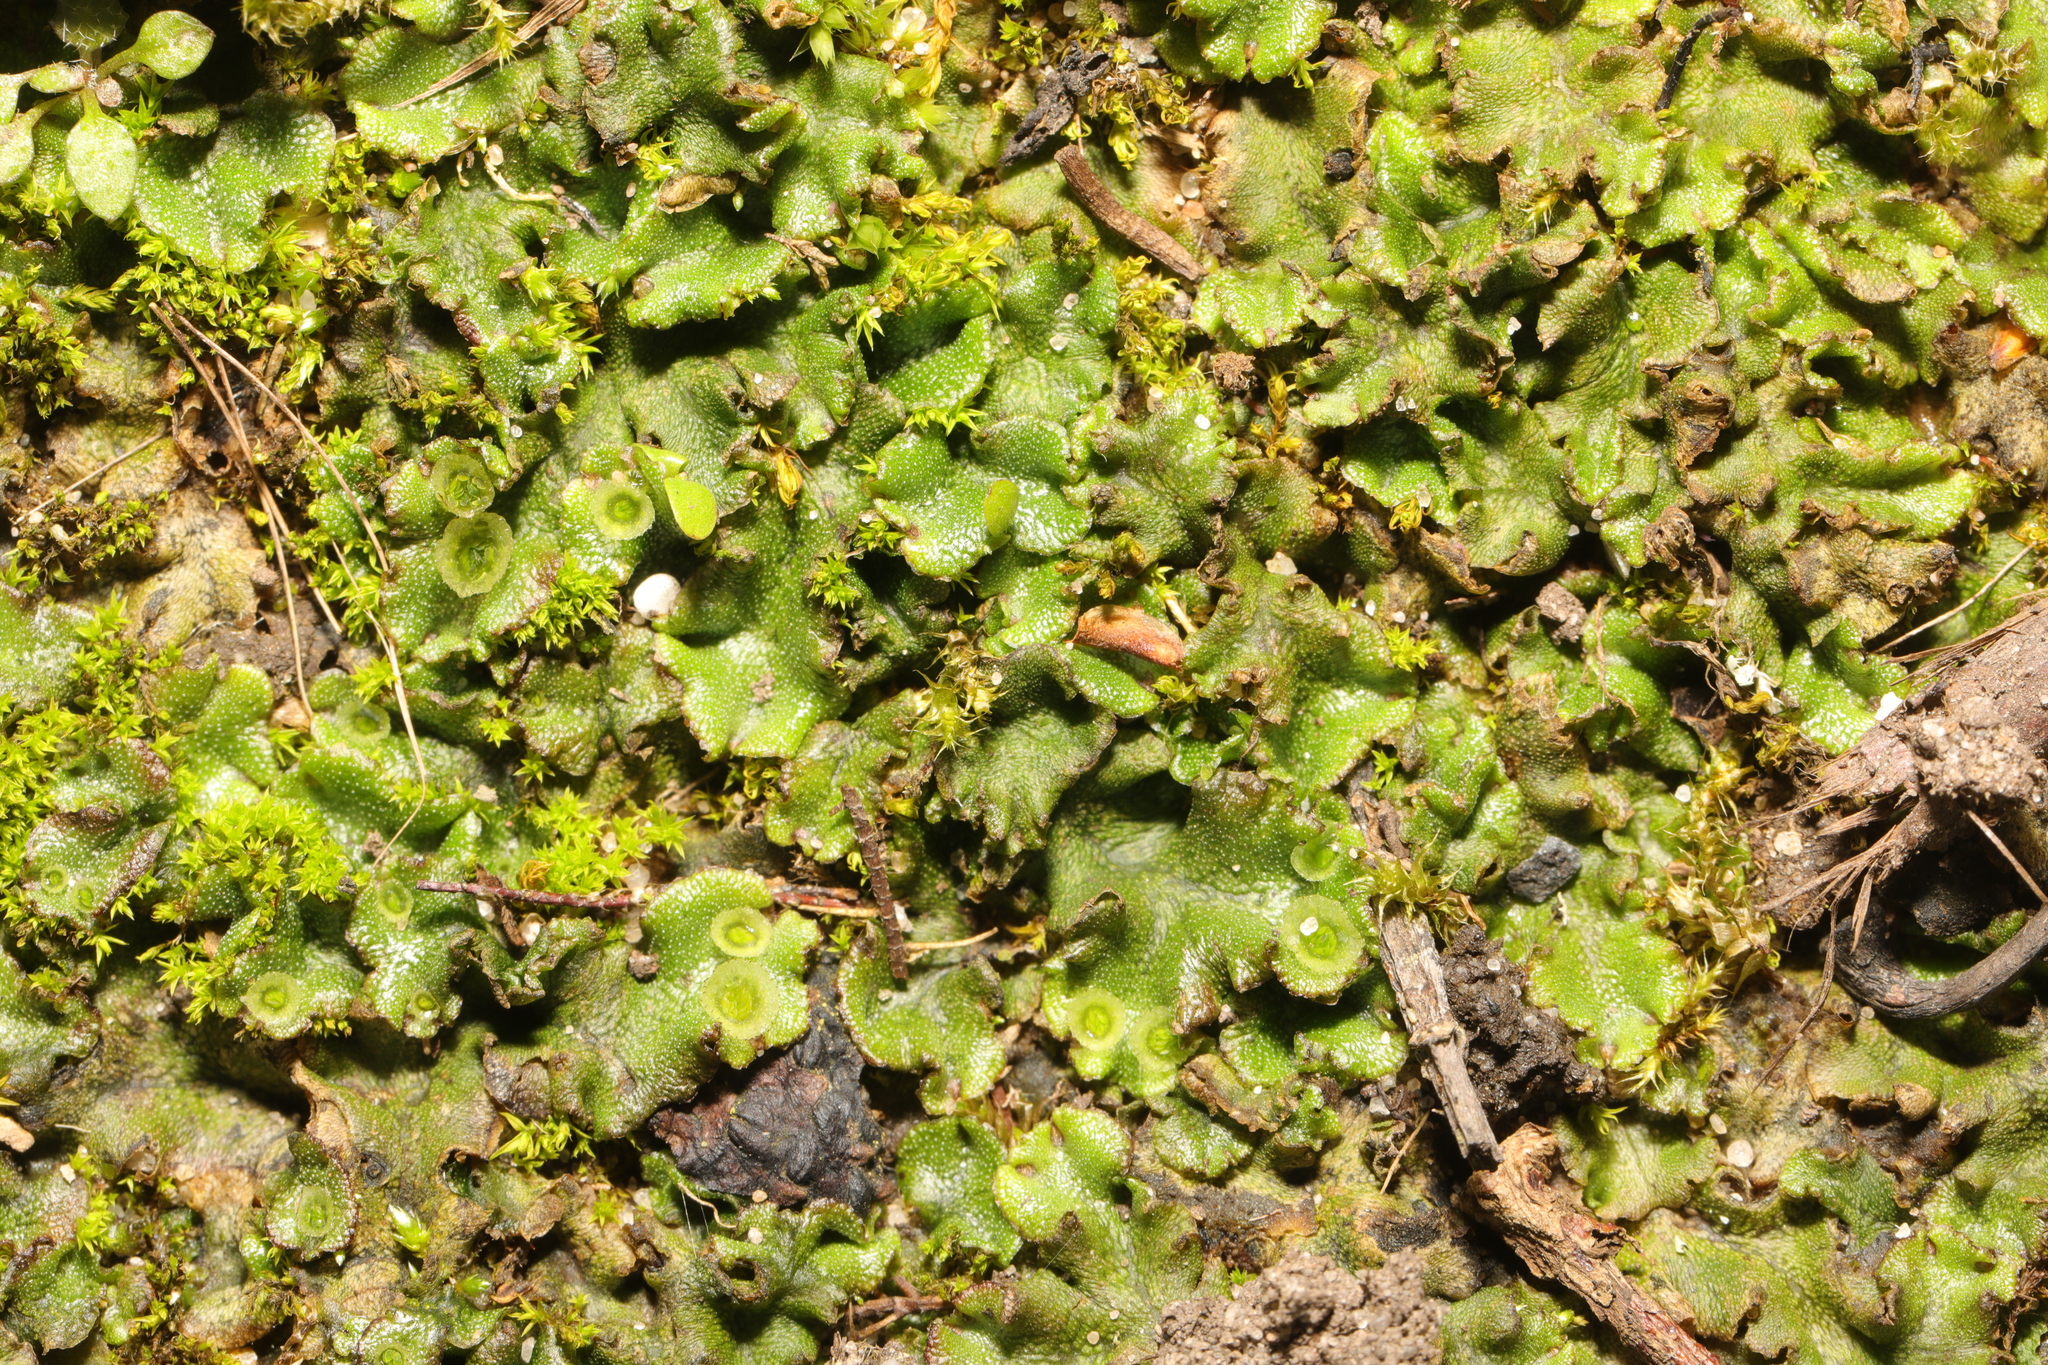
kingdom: Plantae
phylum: Marchantiophyta
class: Marchantiopsida
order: Marchantiales
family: Marchantiaceae
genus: Marchantia
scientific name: Marchantia polymorpha
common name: Common liverwort
